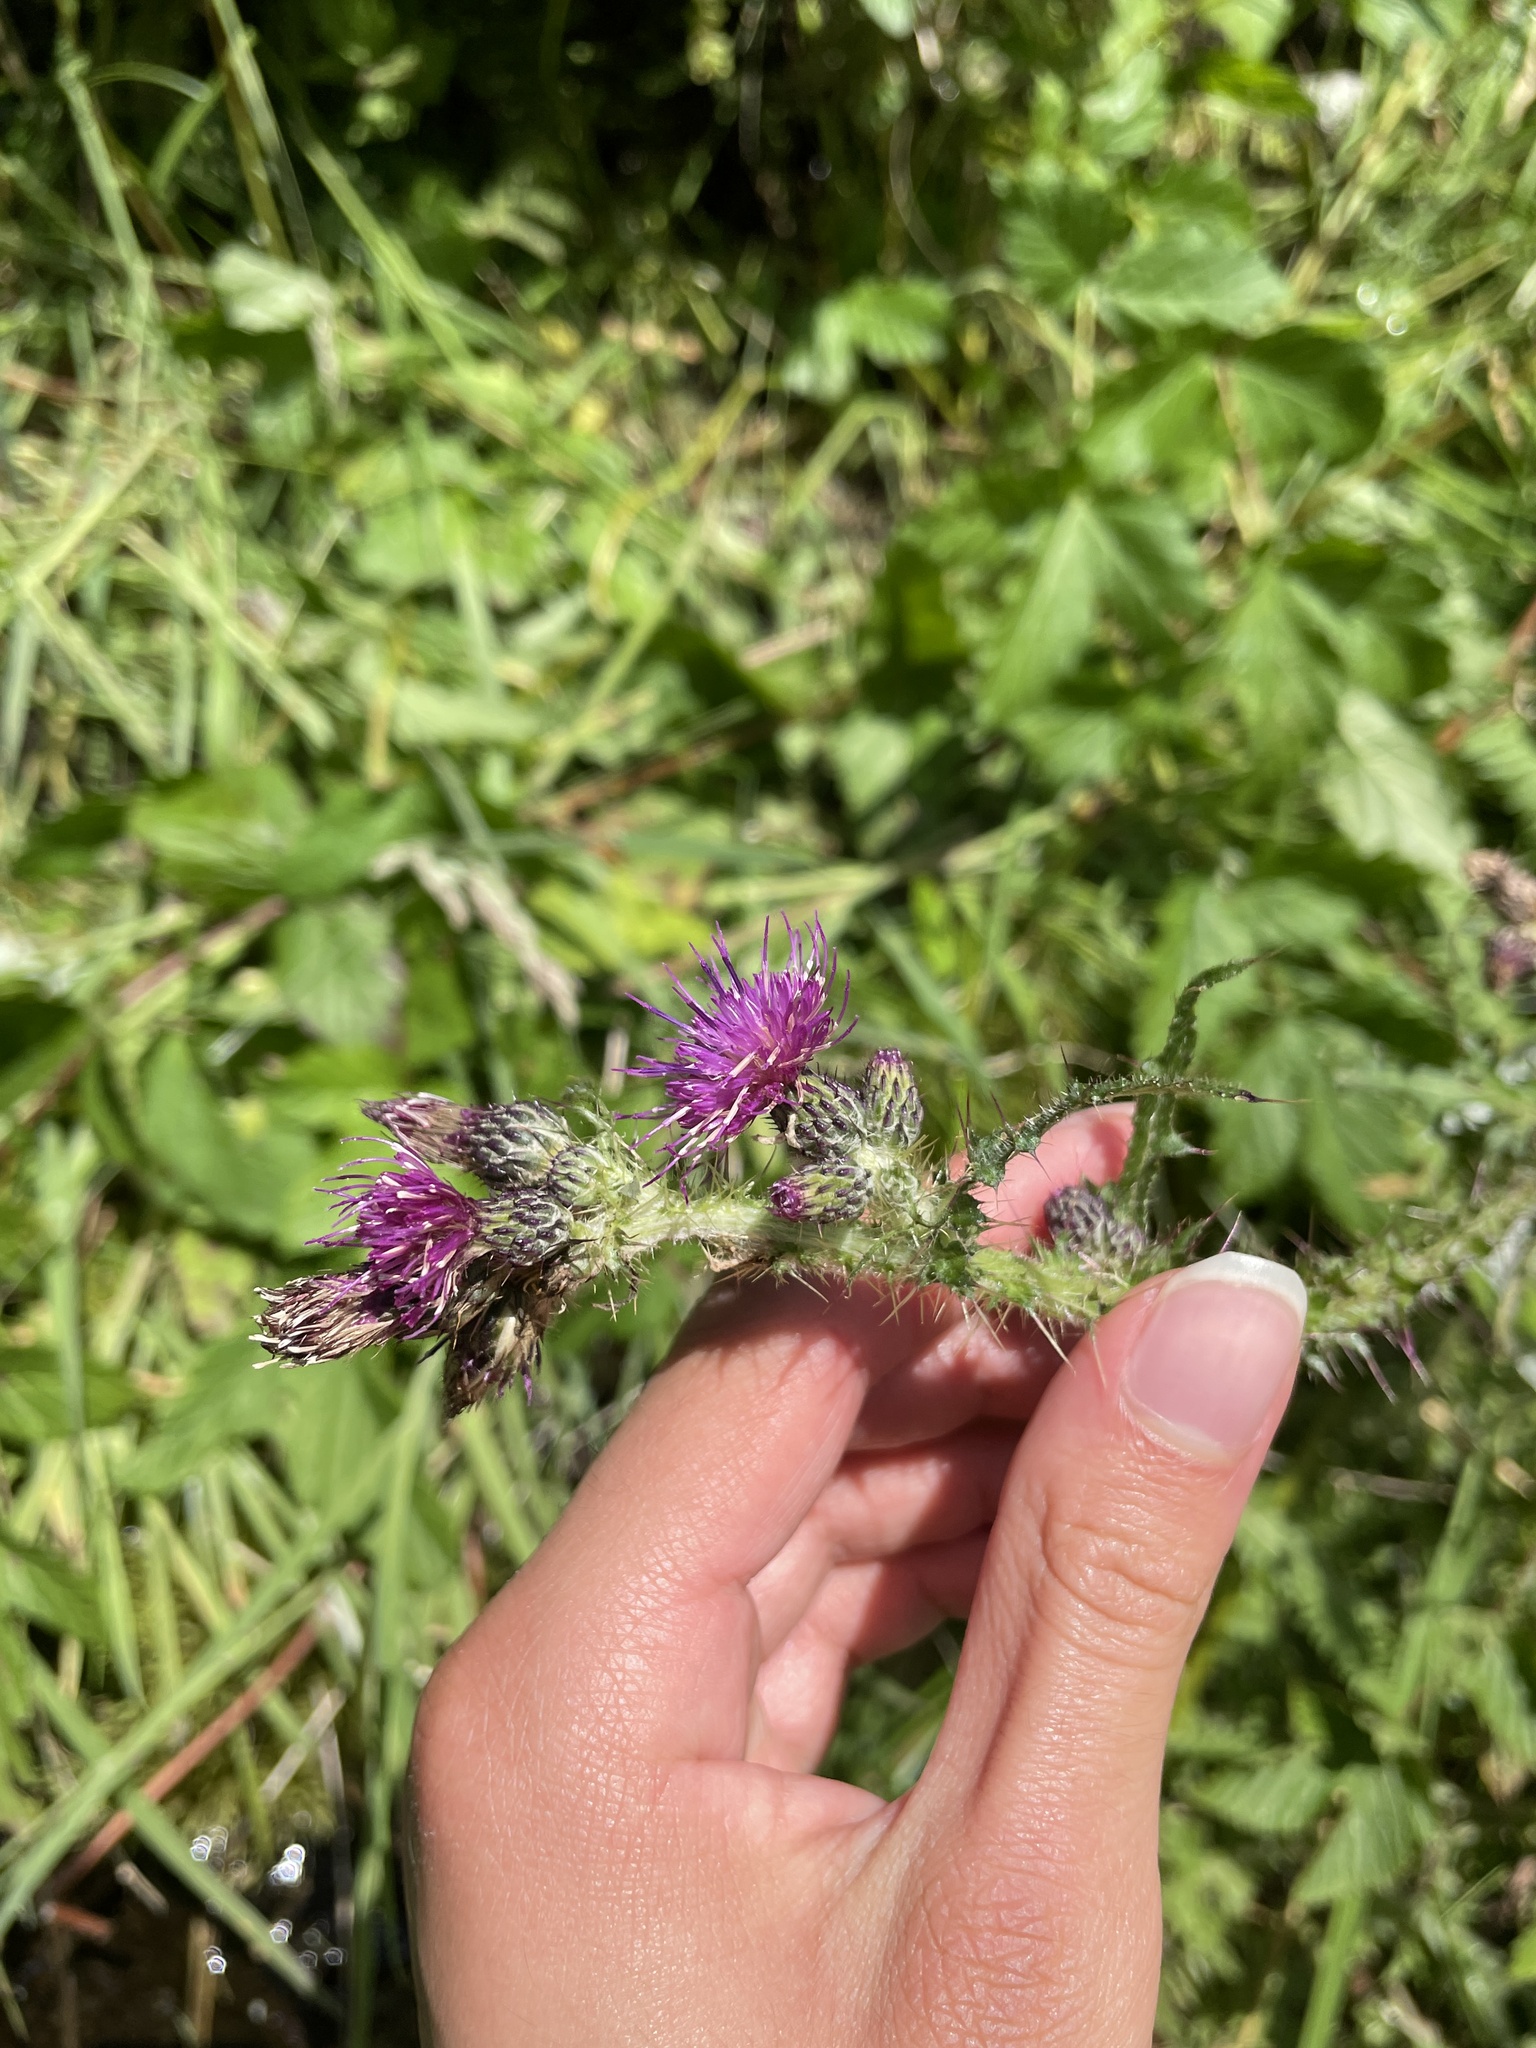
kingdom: Plantae
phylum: Tracheophyta
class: Magnoliopsida
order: Asterales
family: Asteraceae
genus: Cirsium
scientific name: Cirsium palustre
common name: Marsh thistle
